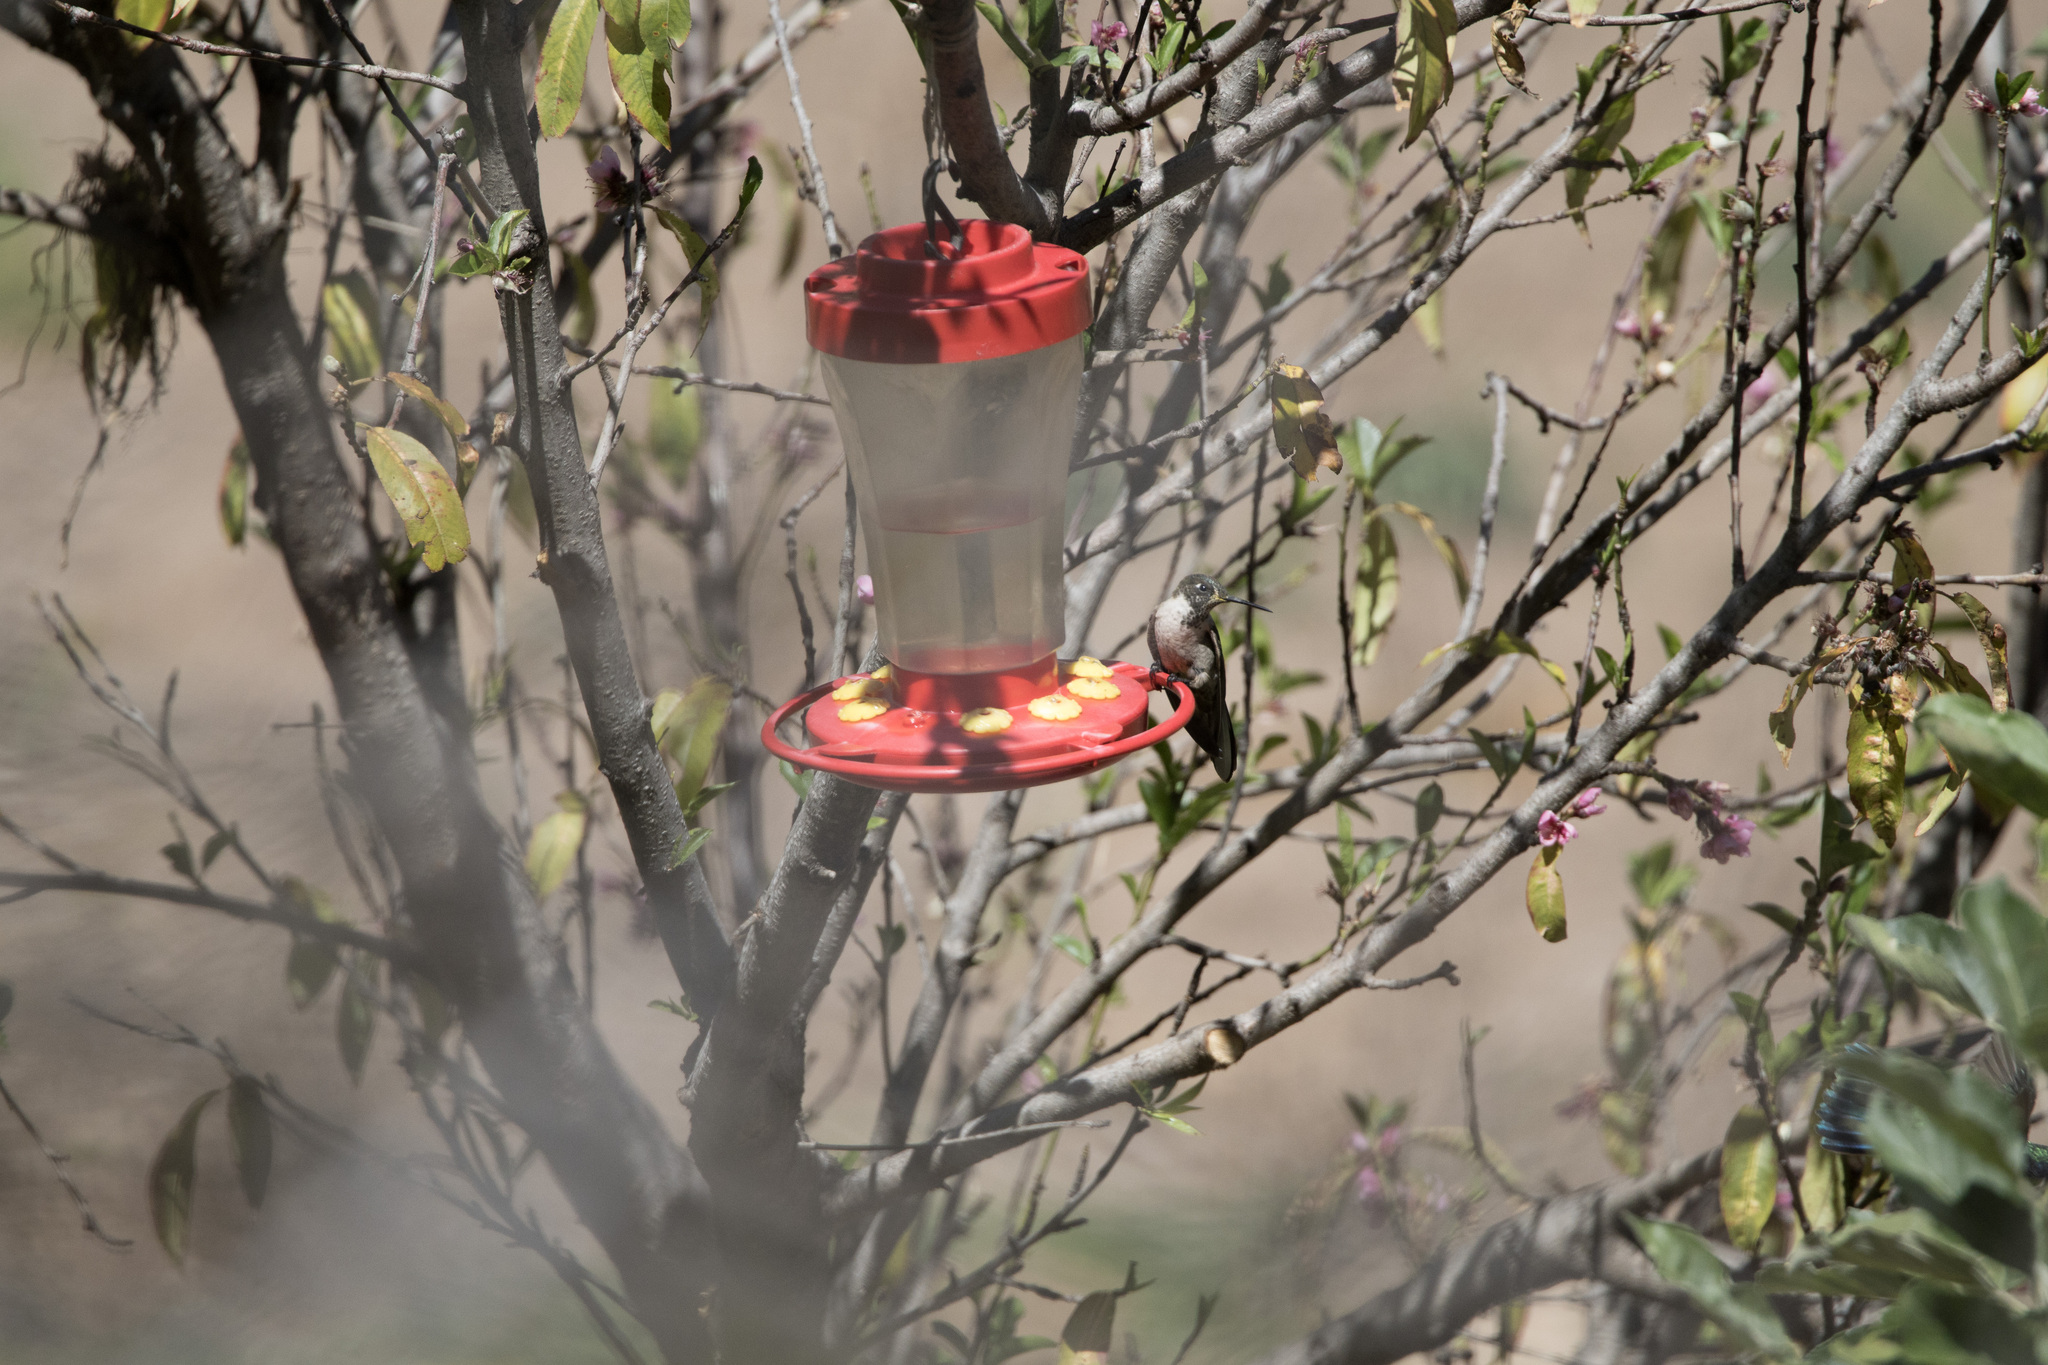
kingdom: Animalia
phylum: Chordata
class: Aves
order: Apodiformes
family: Trochilidae
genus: Oreonympha
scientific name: Oreonympha nobilis
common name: Bearded mountaineer
